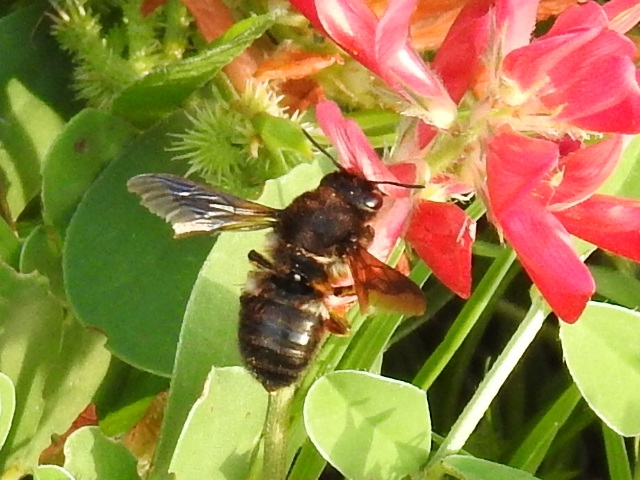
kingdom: Animalia
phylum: Arthropoda
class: Insecta
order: Hymenoptera
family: Megachilidae
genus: Megachile
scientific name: Megachile parietina
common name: Black mud bee
